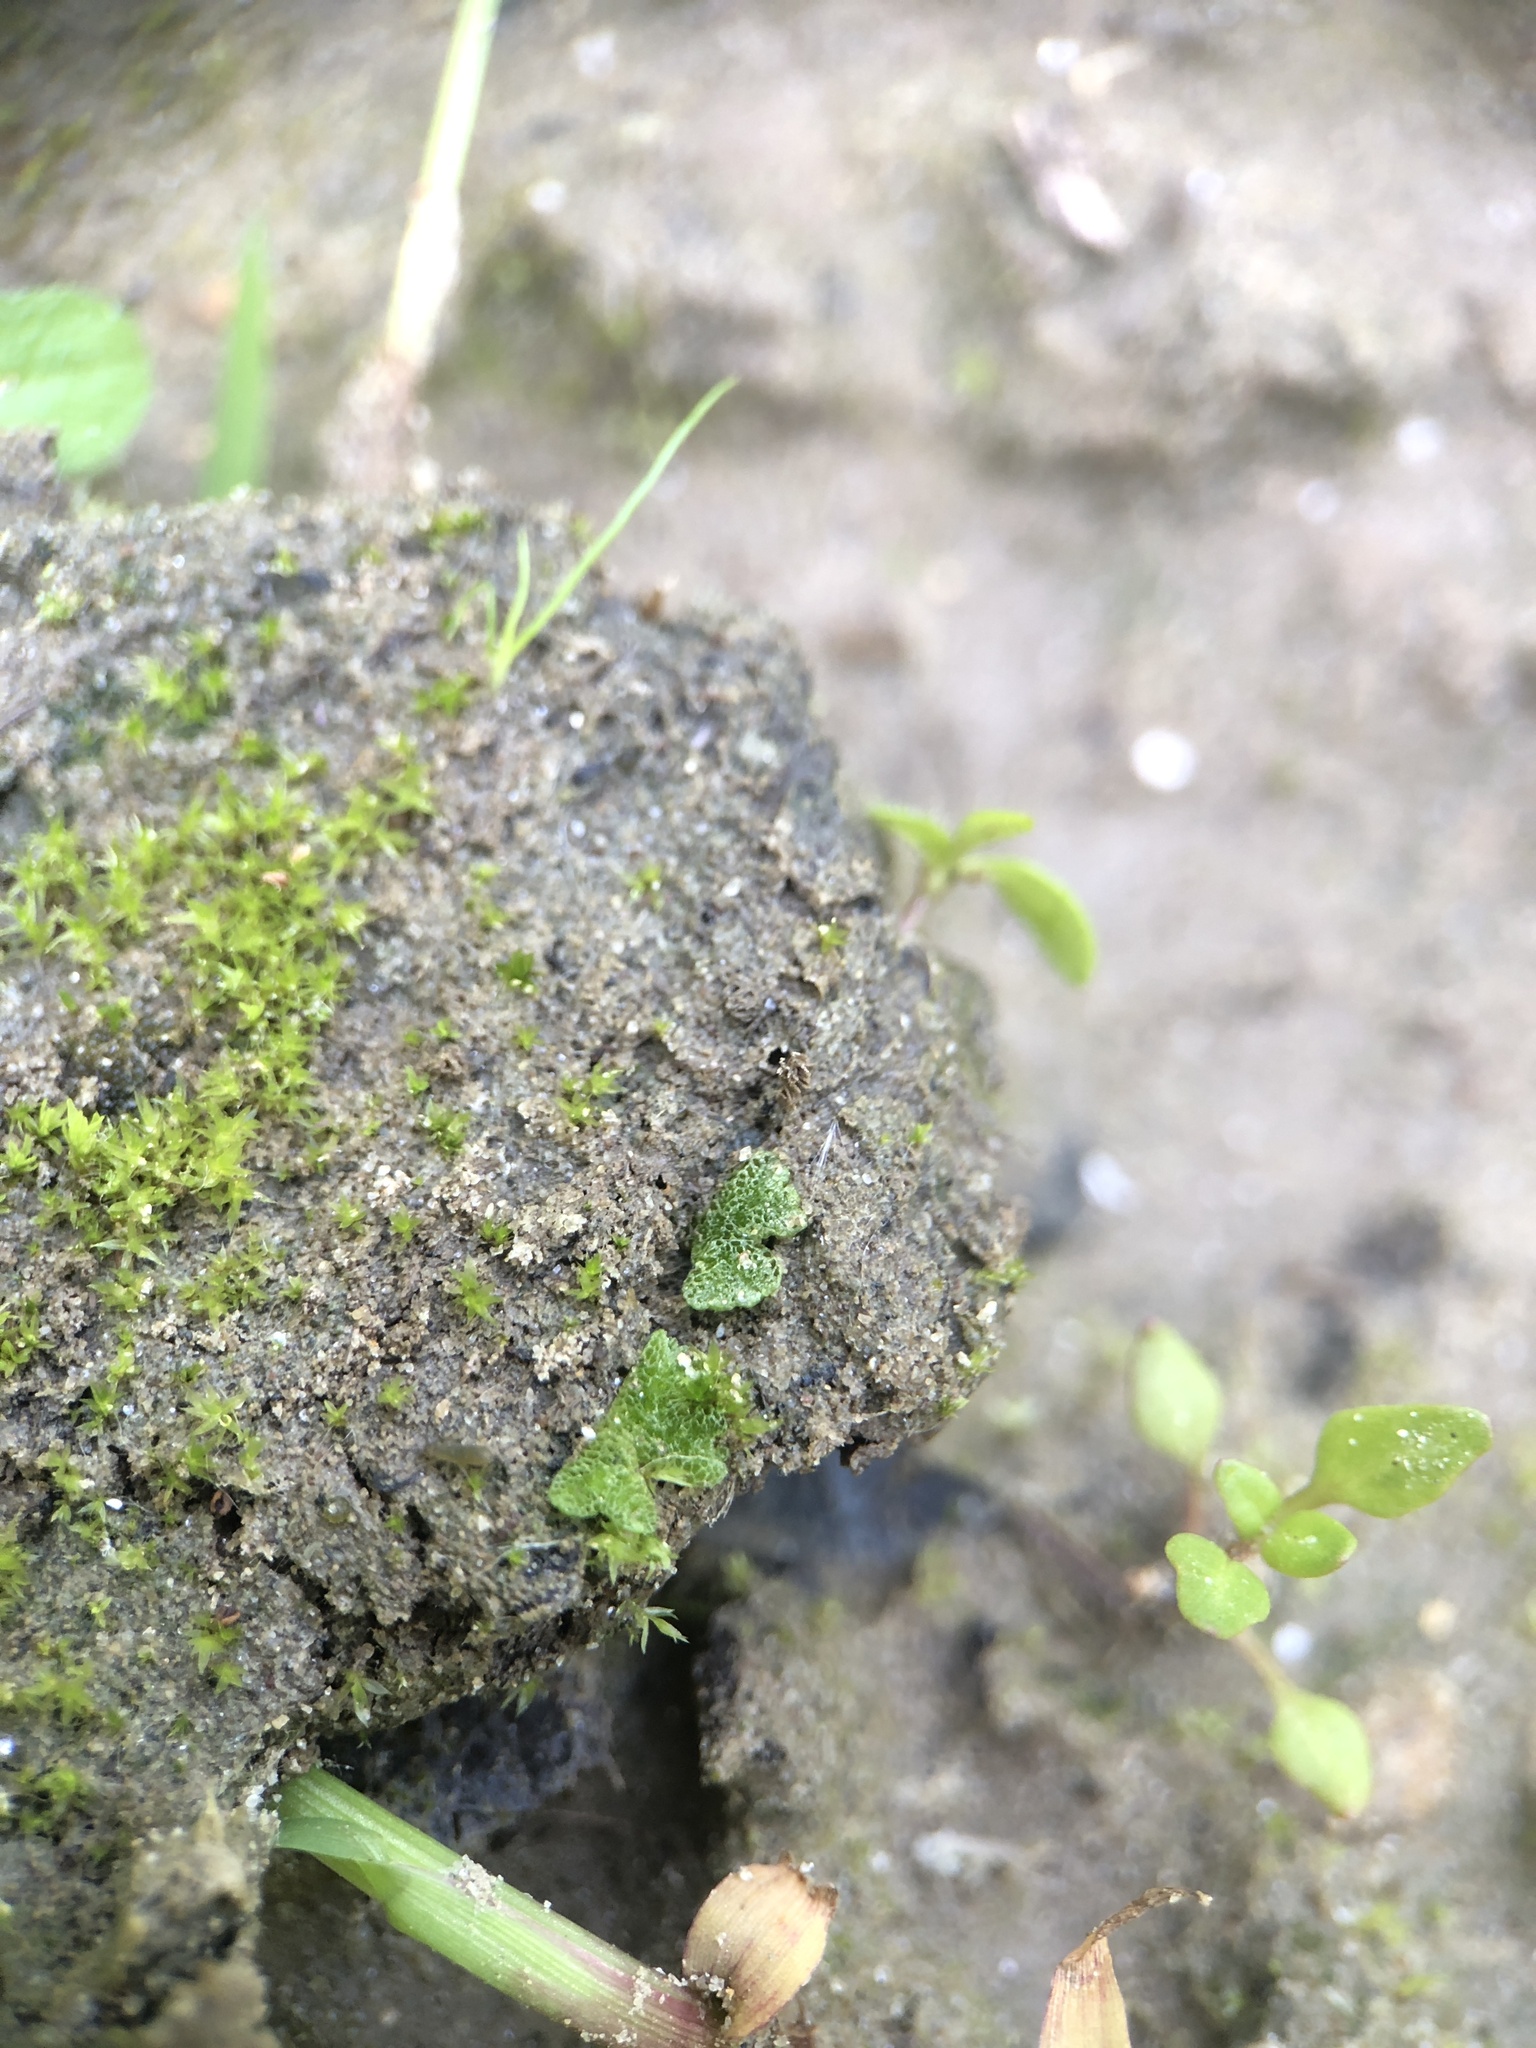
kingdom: Plantae
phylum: Marchantiophyta
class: Marchantiopsida
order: Marchantiales
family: Ricciaceae
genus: Riccia
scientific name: Riccia cavernosa
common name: Cavernous crystalwort
